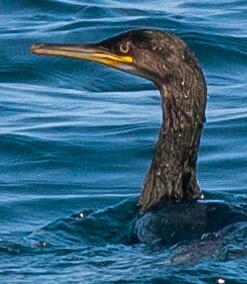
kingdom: Animalia
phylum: Chordata
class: Aves
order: Suliformes
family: Phalacrocoracidae
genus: Phalacrocorax
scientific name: Phalacrocorax aristotelis
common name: European shag
